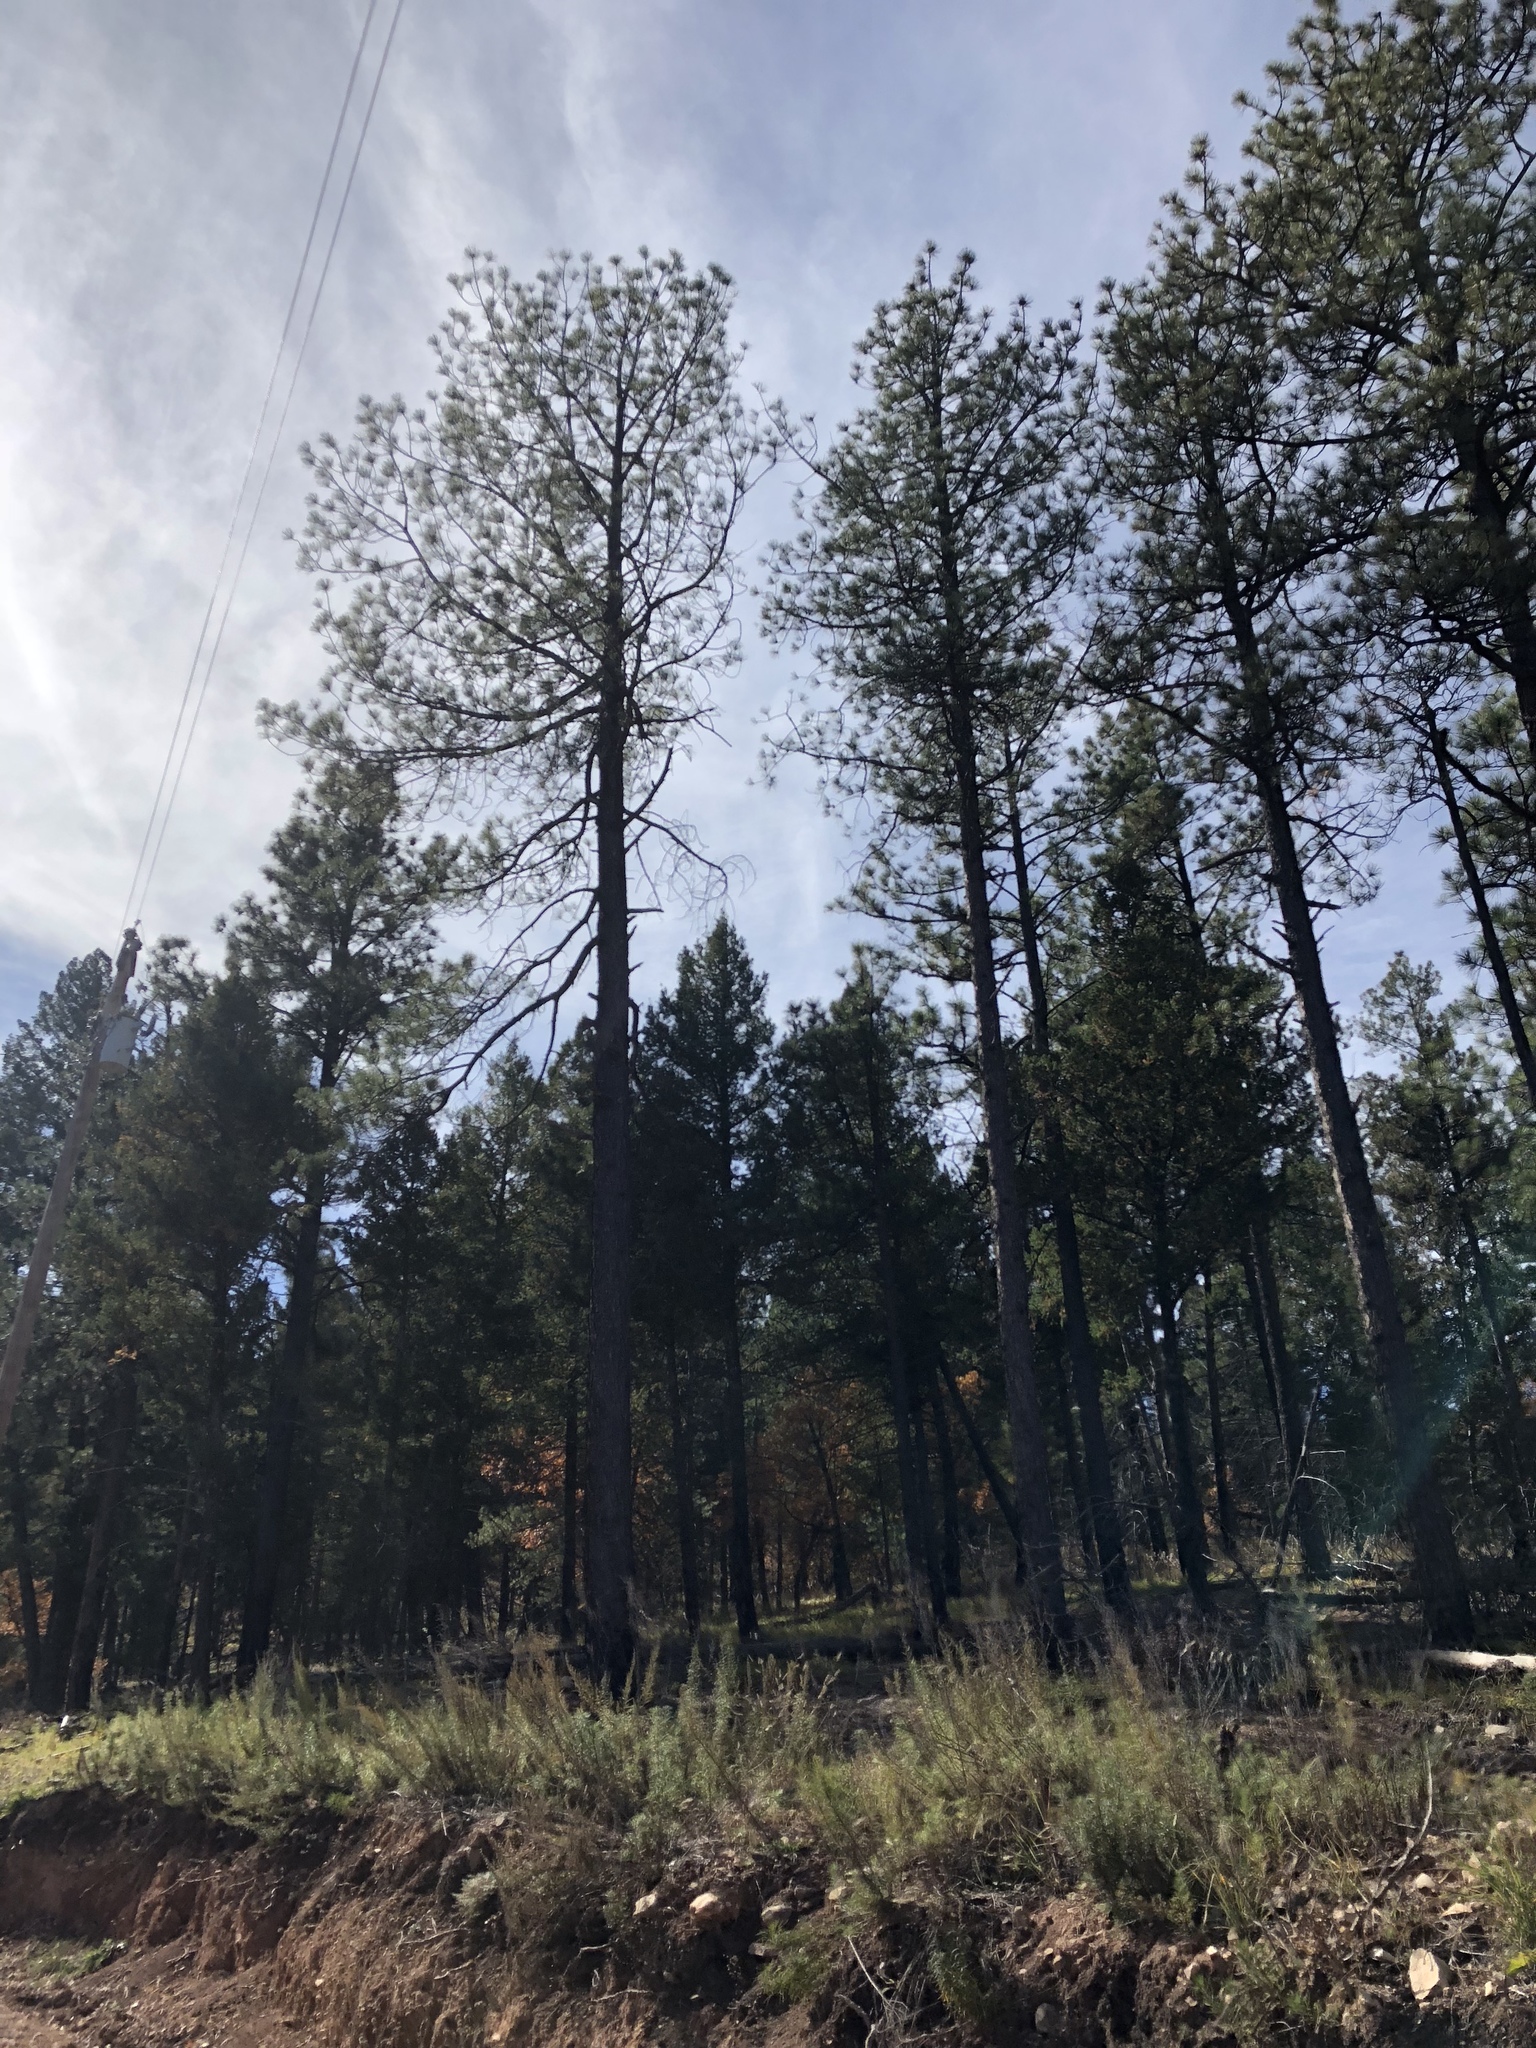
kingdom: Plantae
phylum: Tracheophyta
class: Pinopsida
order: Pinales
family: Pinaceae
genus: Pinus
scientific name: Pinus ponderosa
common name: Western yellow-pine
